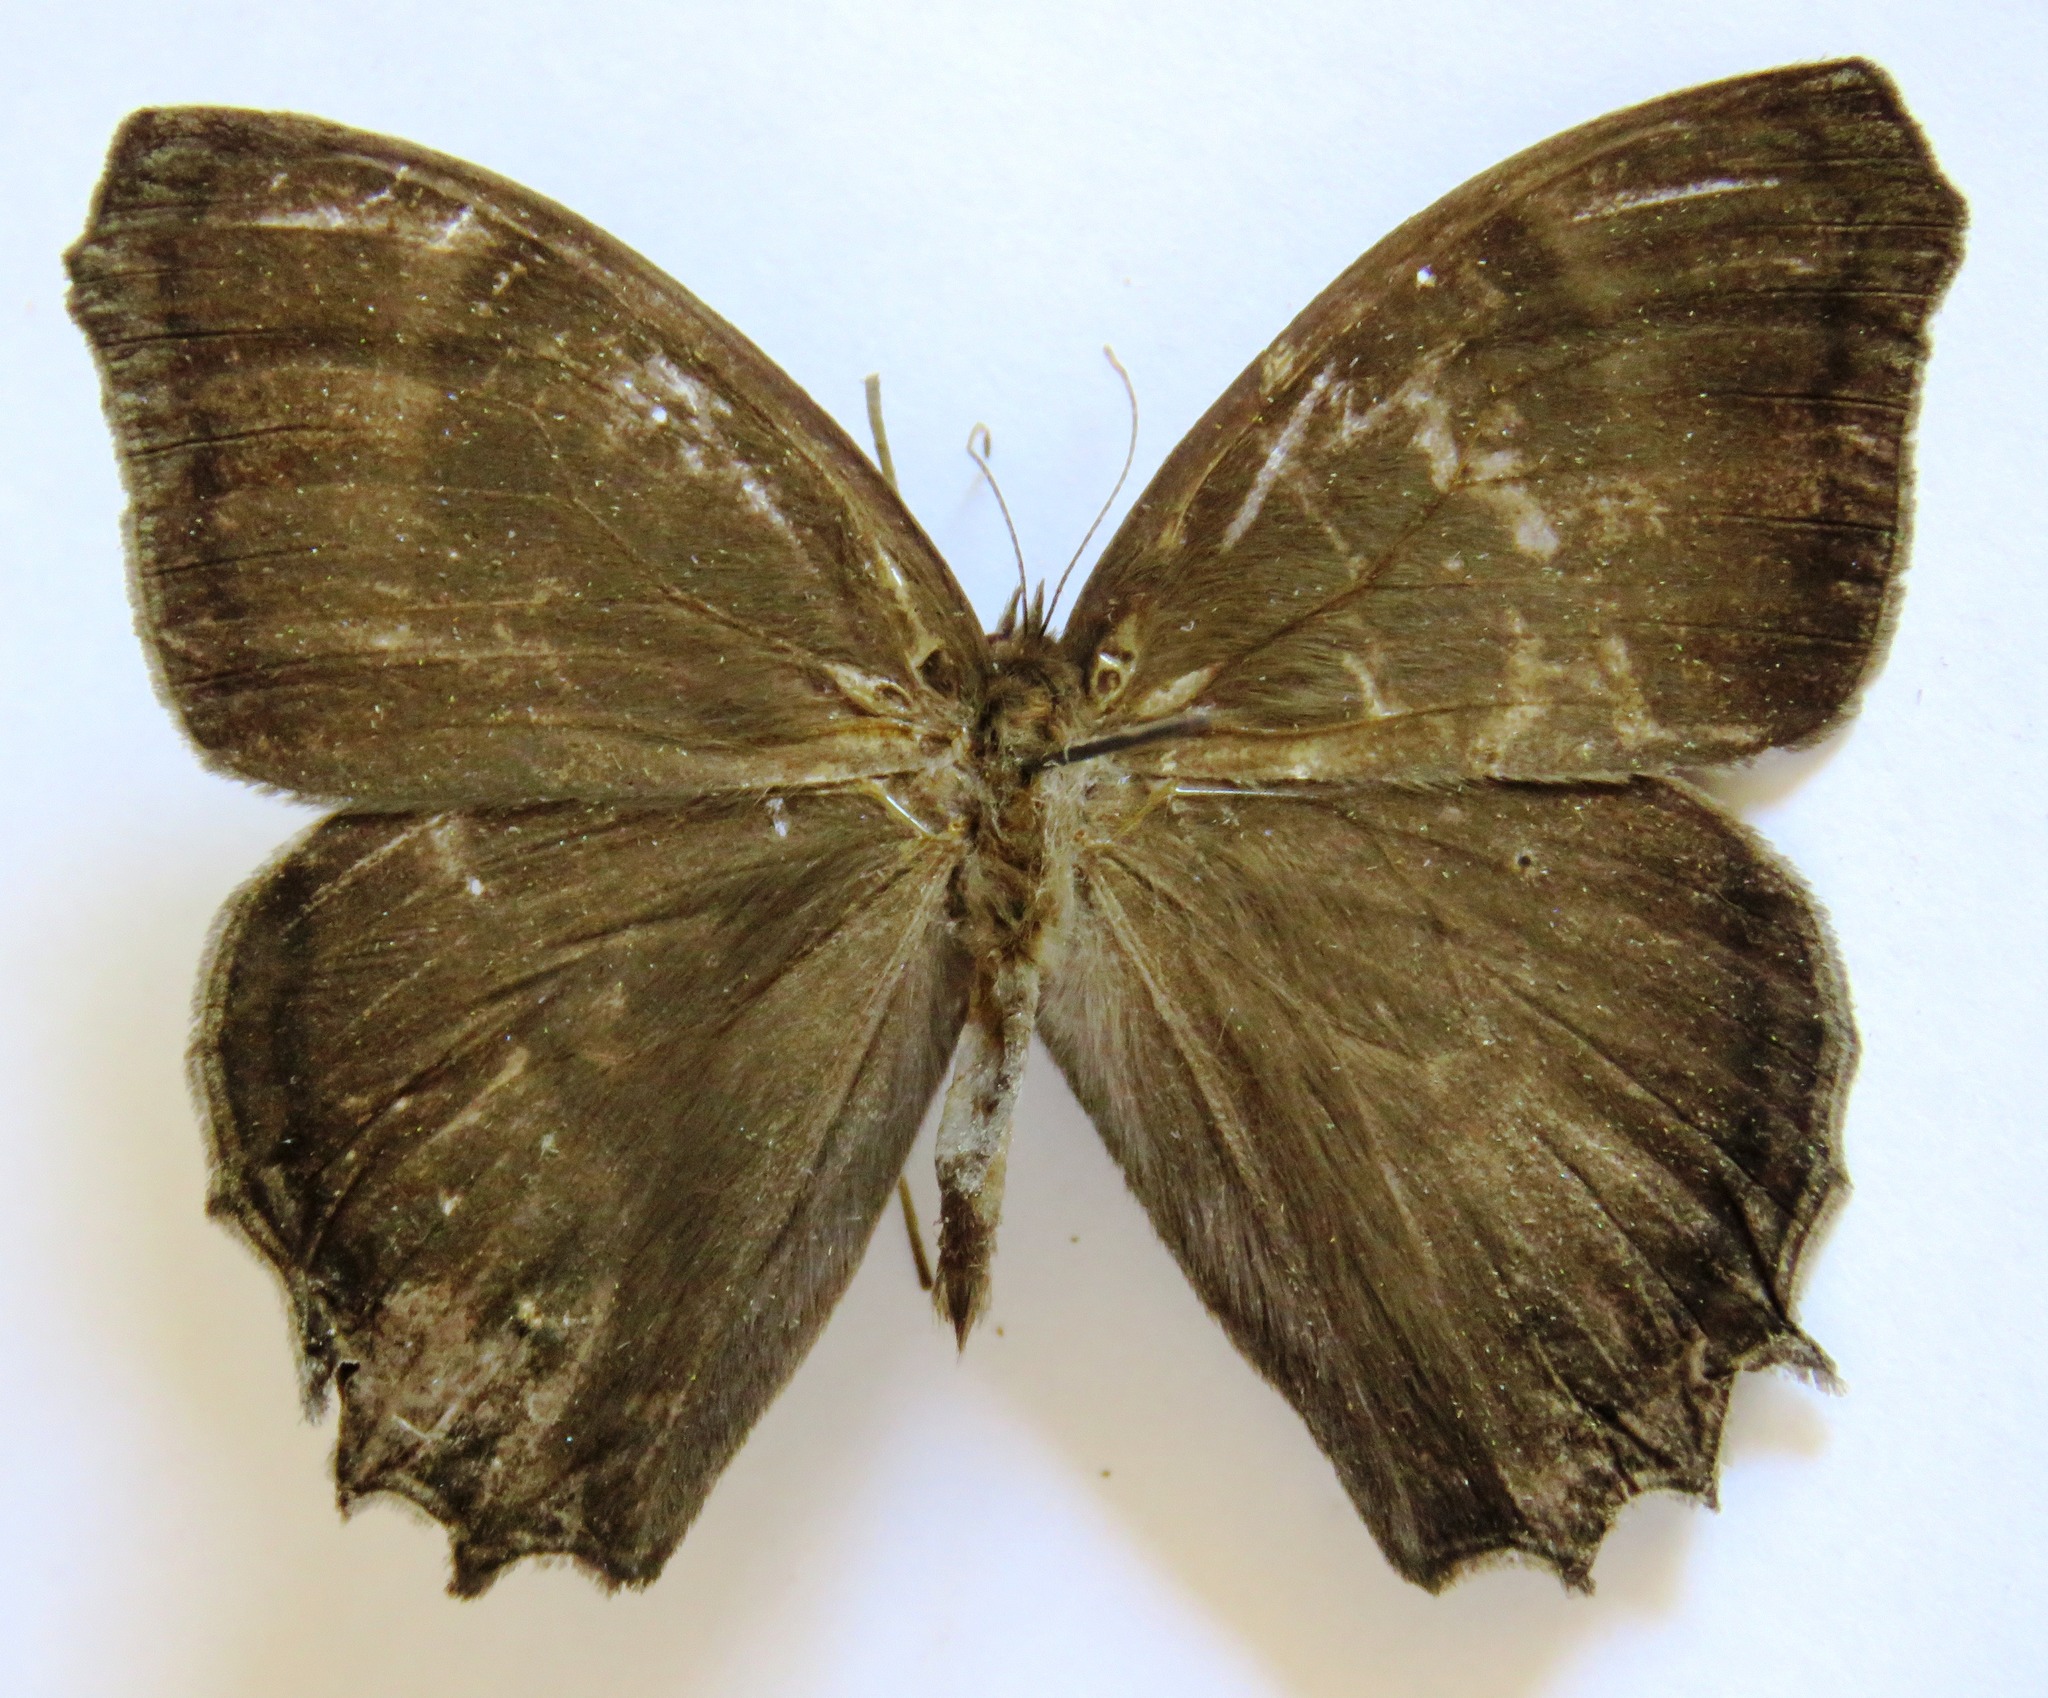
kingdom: Animalia
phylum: Arthropoda
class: Insecta
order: Lepidoptera
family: Nymphalidae
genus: Taygetis
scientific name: Taygetis uncinata
